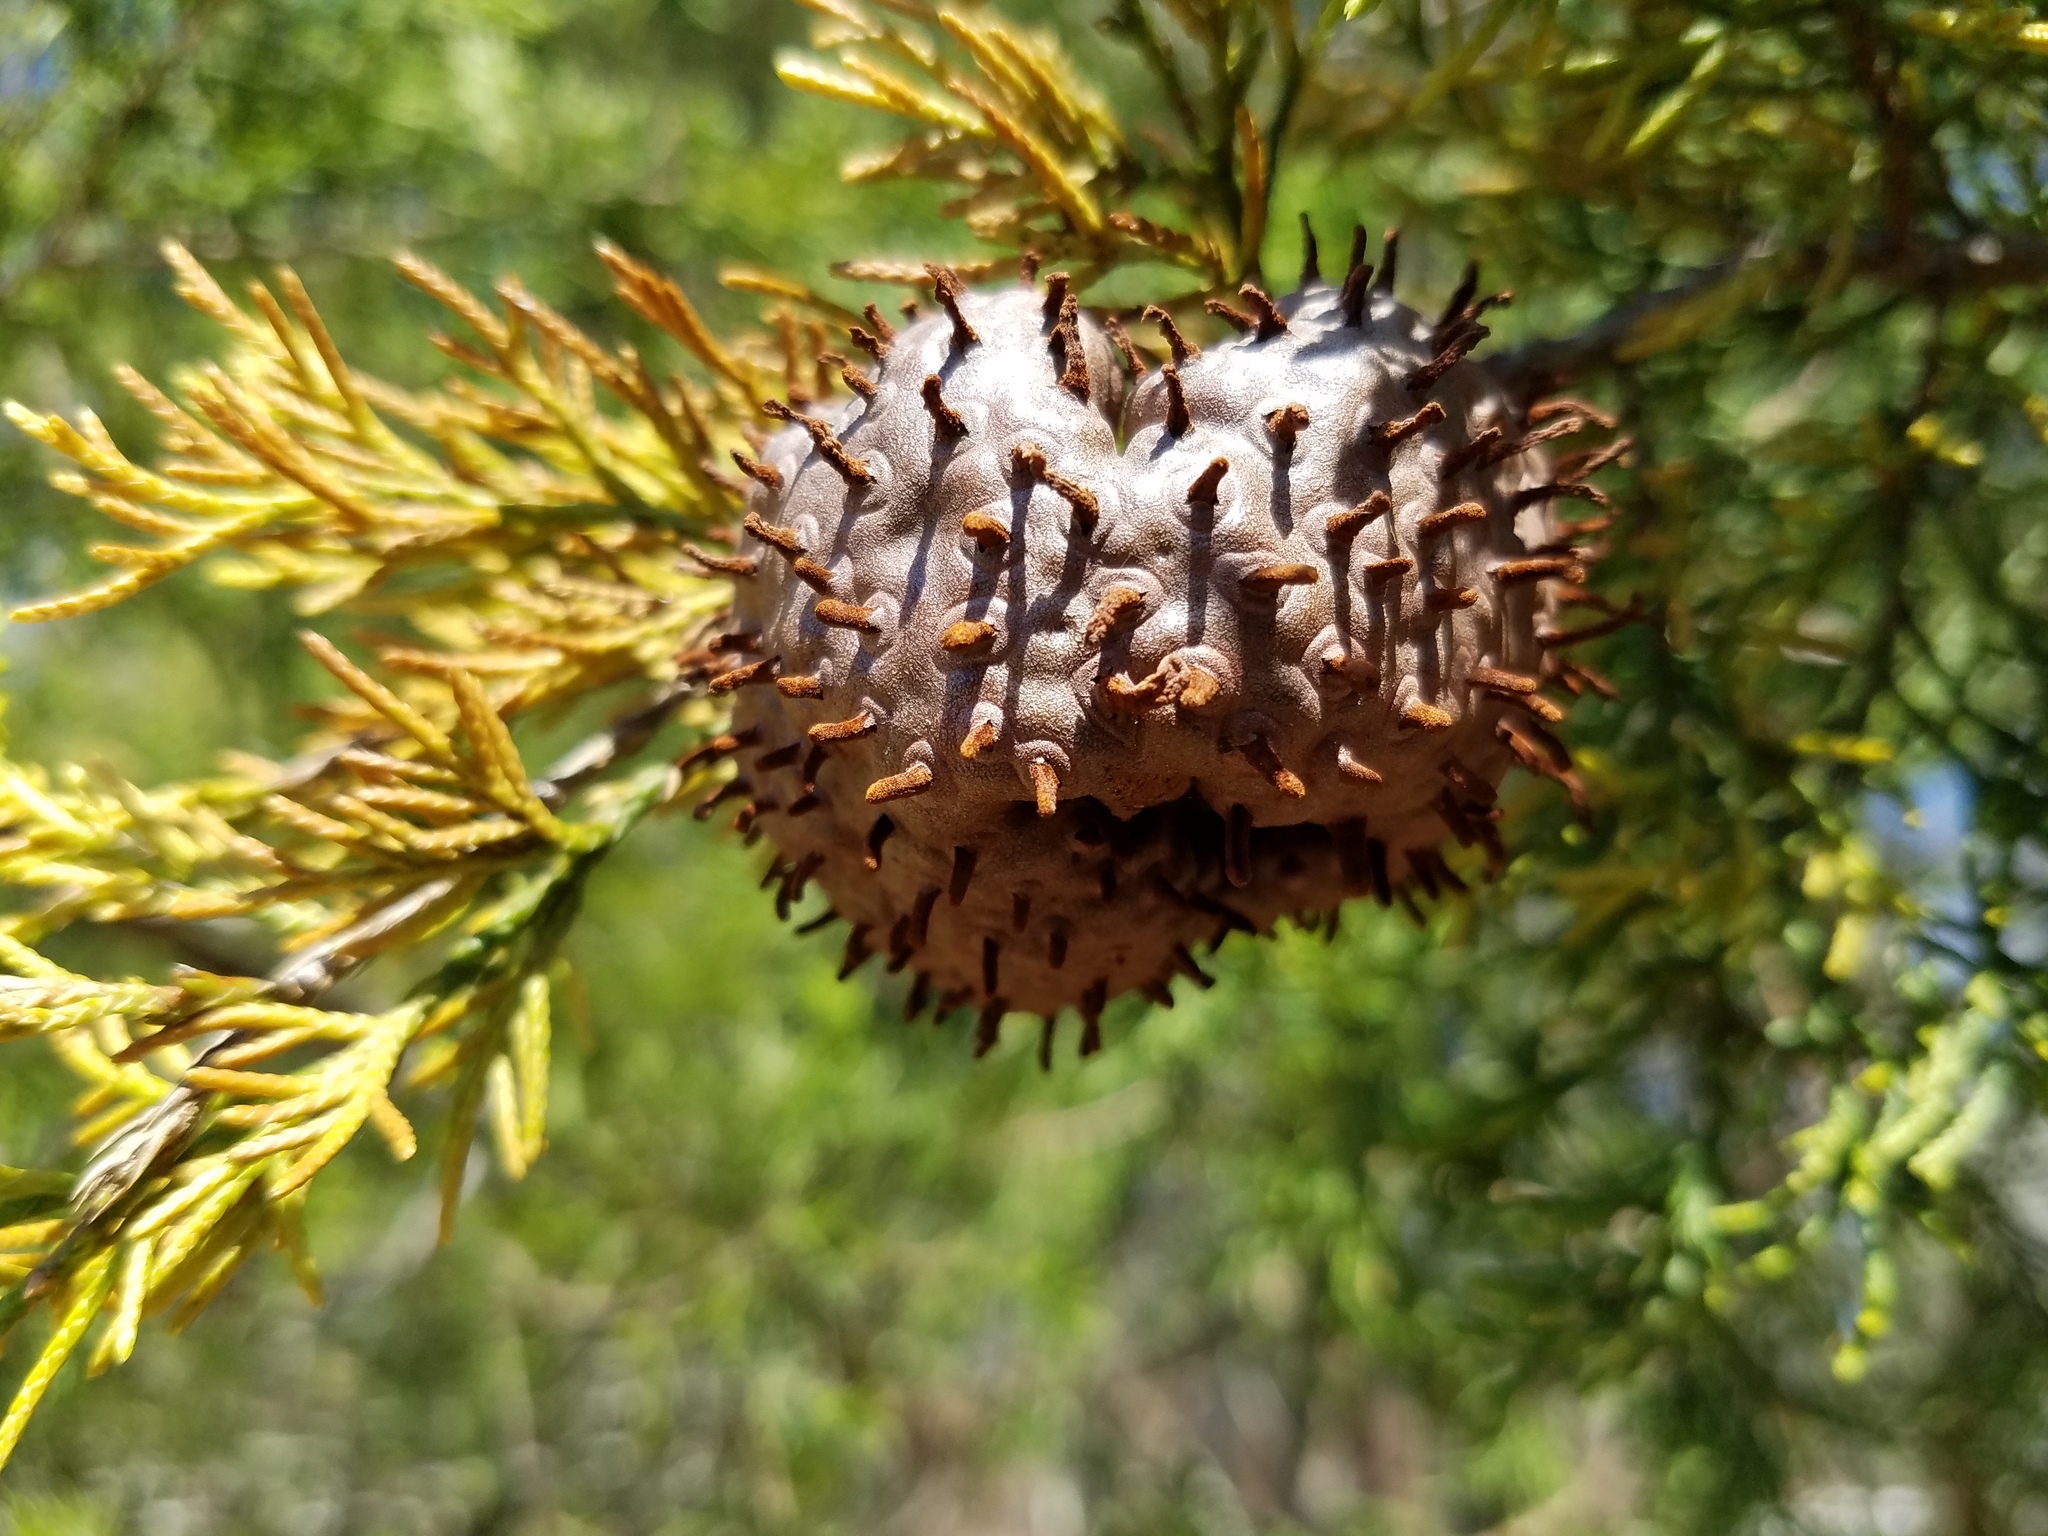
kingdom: Fungi
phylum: Basidiomycota
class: Pucciniomycetes
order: Pucciniales
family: Gymnosporangiaceae
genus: Gymnosporangium
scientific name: Gymnosporangium juniperi-virginianae
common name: Juniper-apple rust
